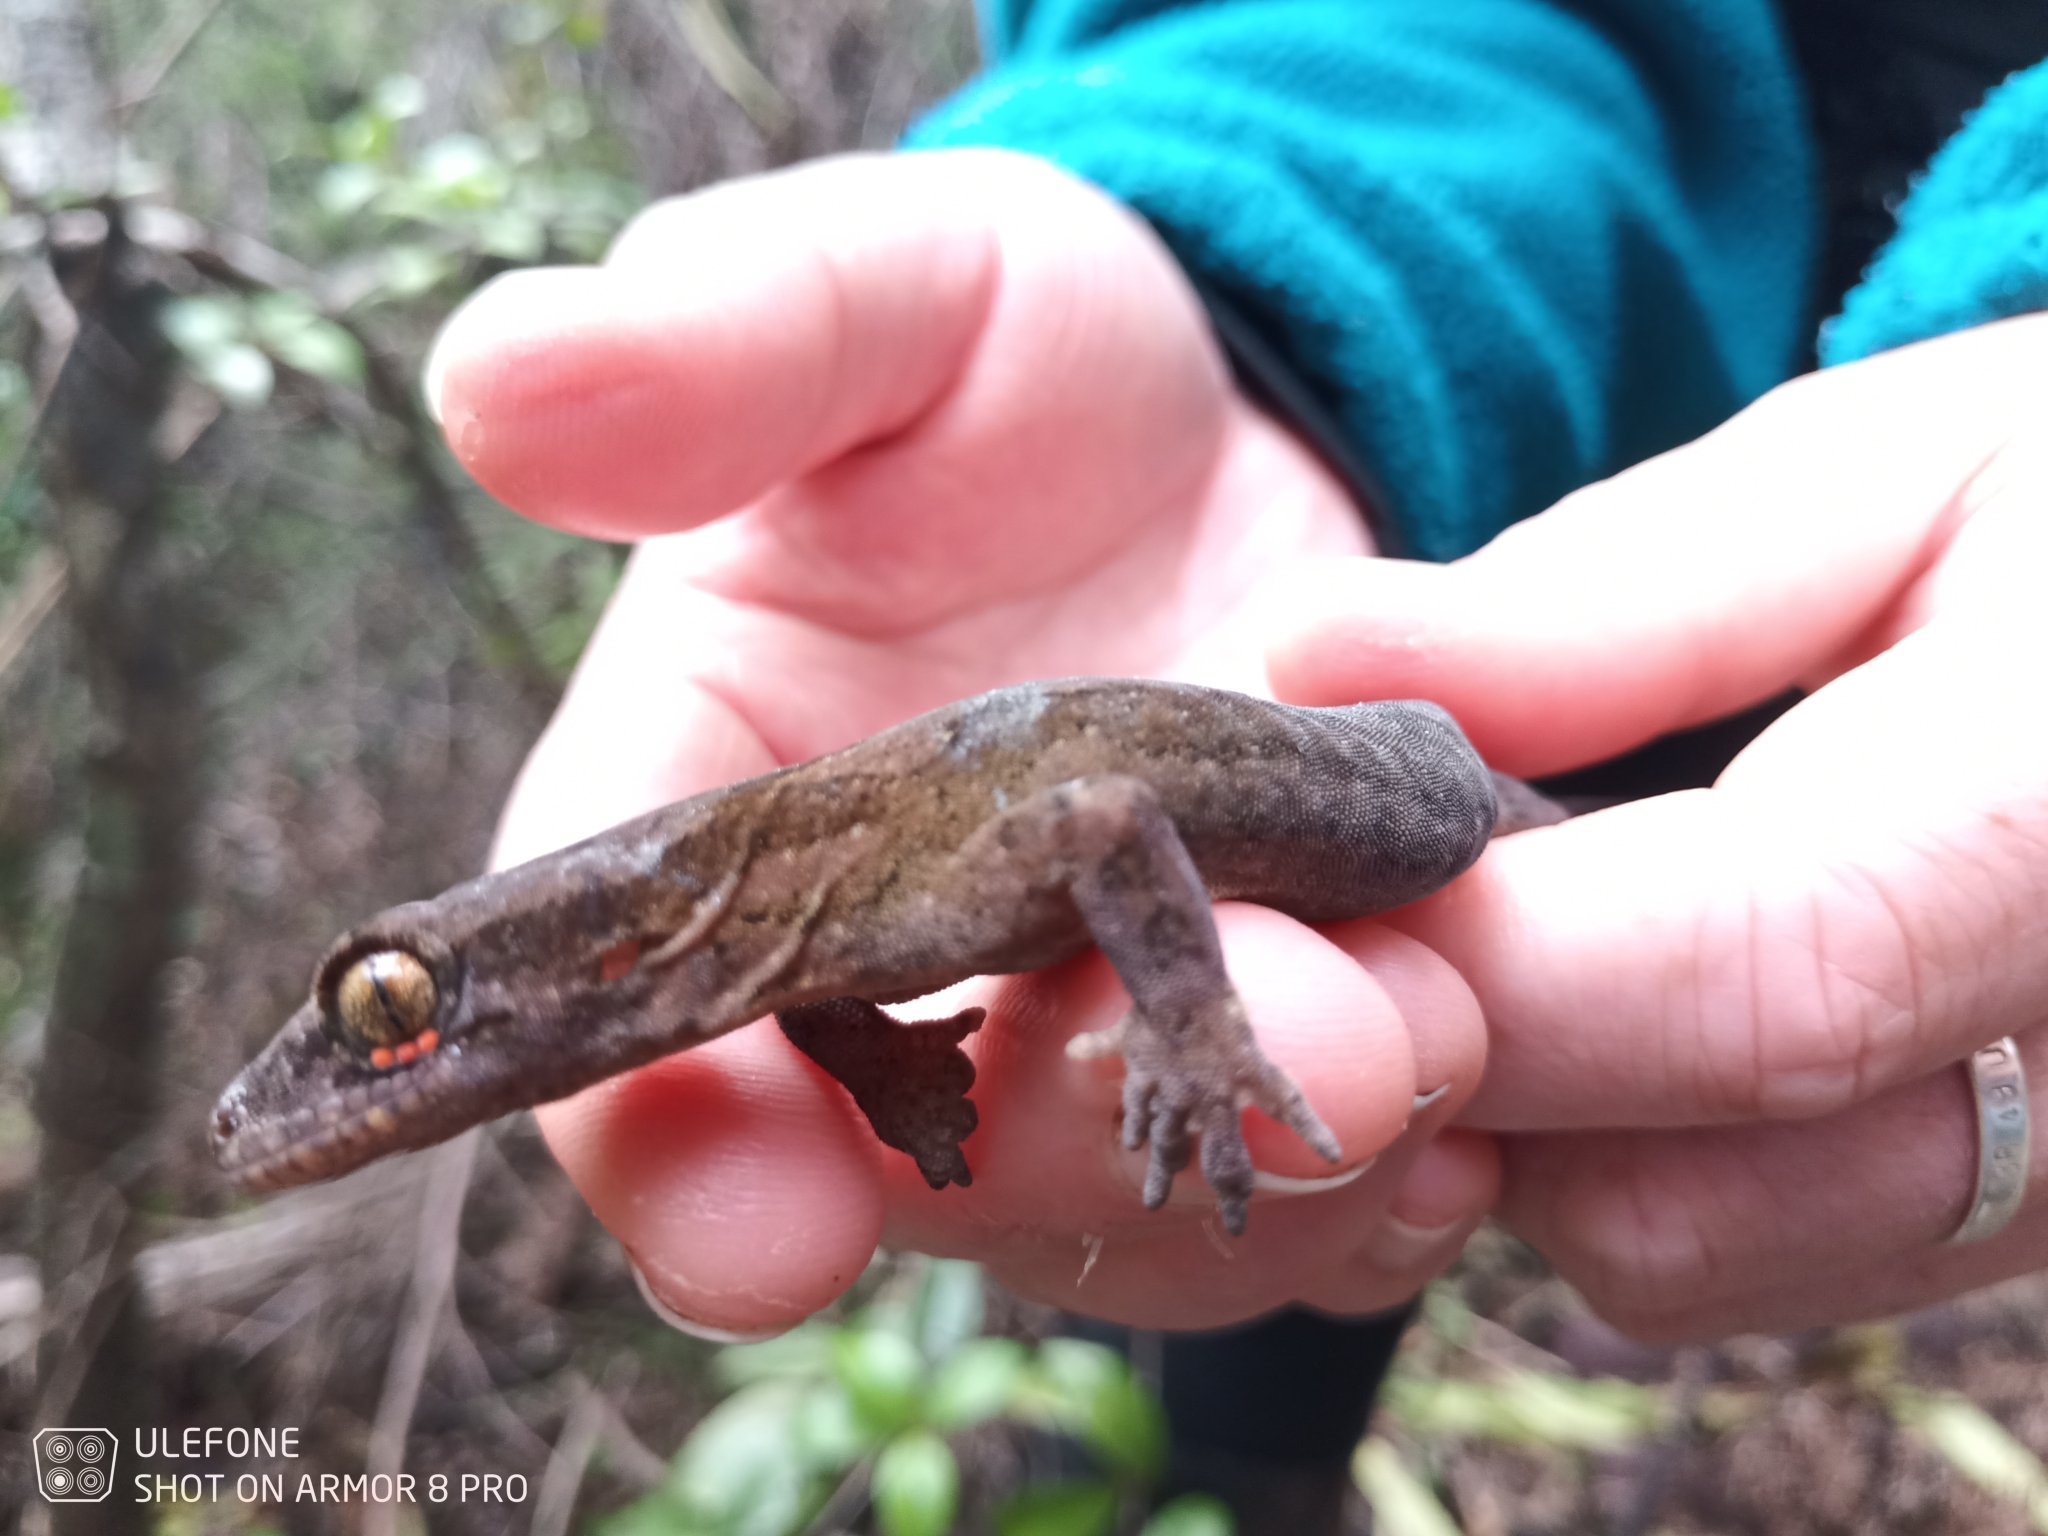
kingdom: Animalia
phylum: Chordata
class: Squamata
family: Diplodactylidae
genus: Dactylocnemis
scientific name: Dactylocnemis pacificus
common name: Pacific gecko
